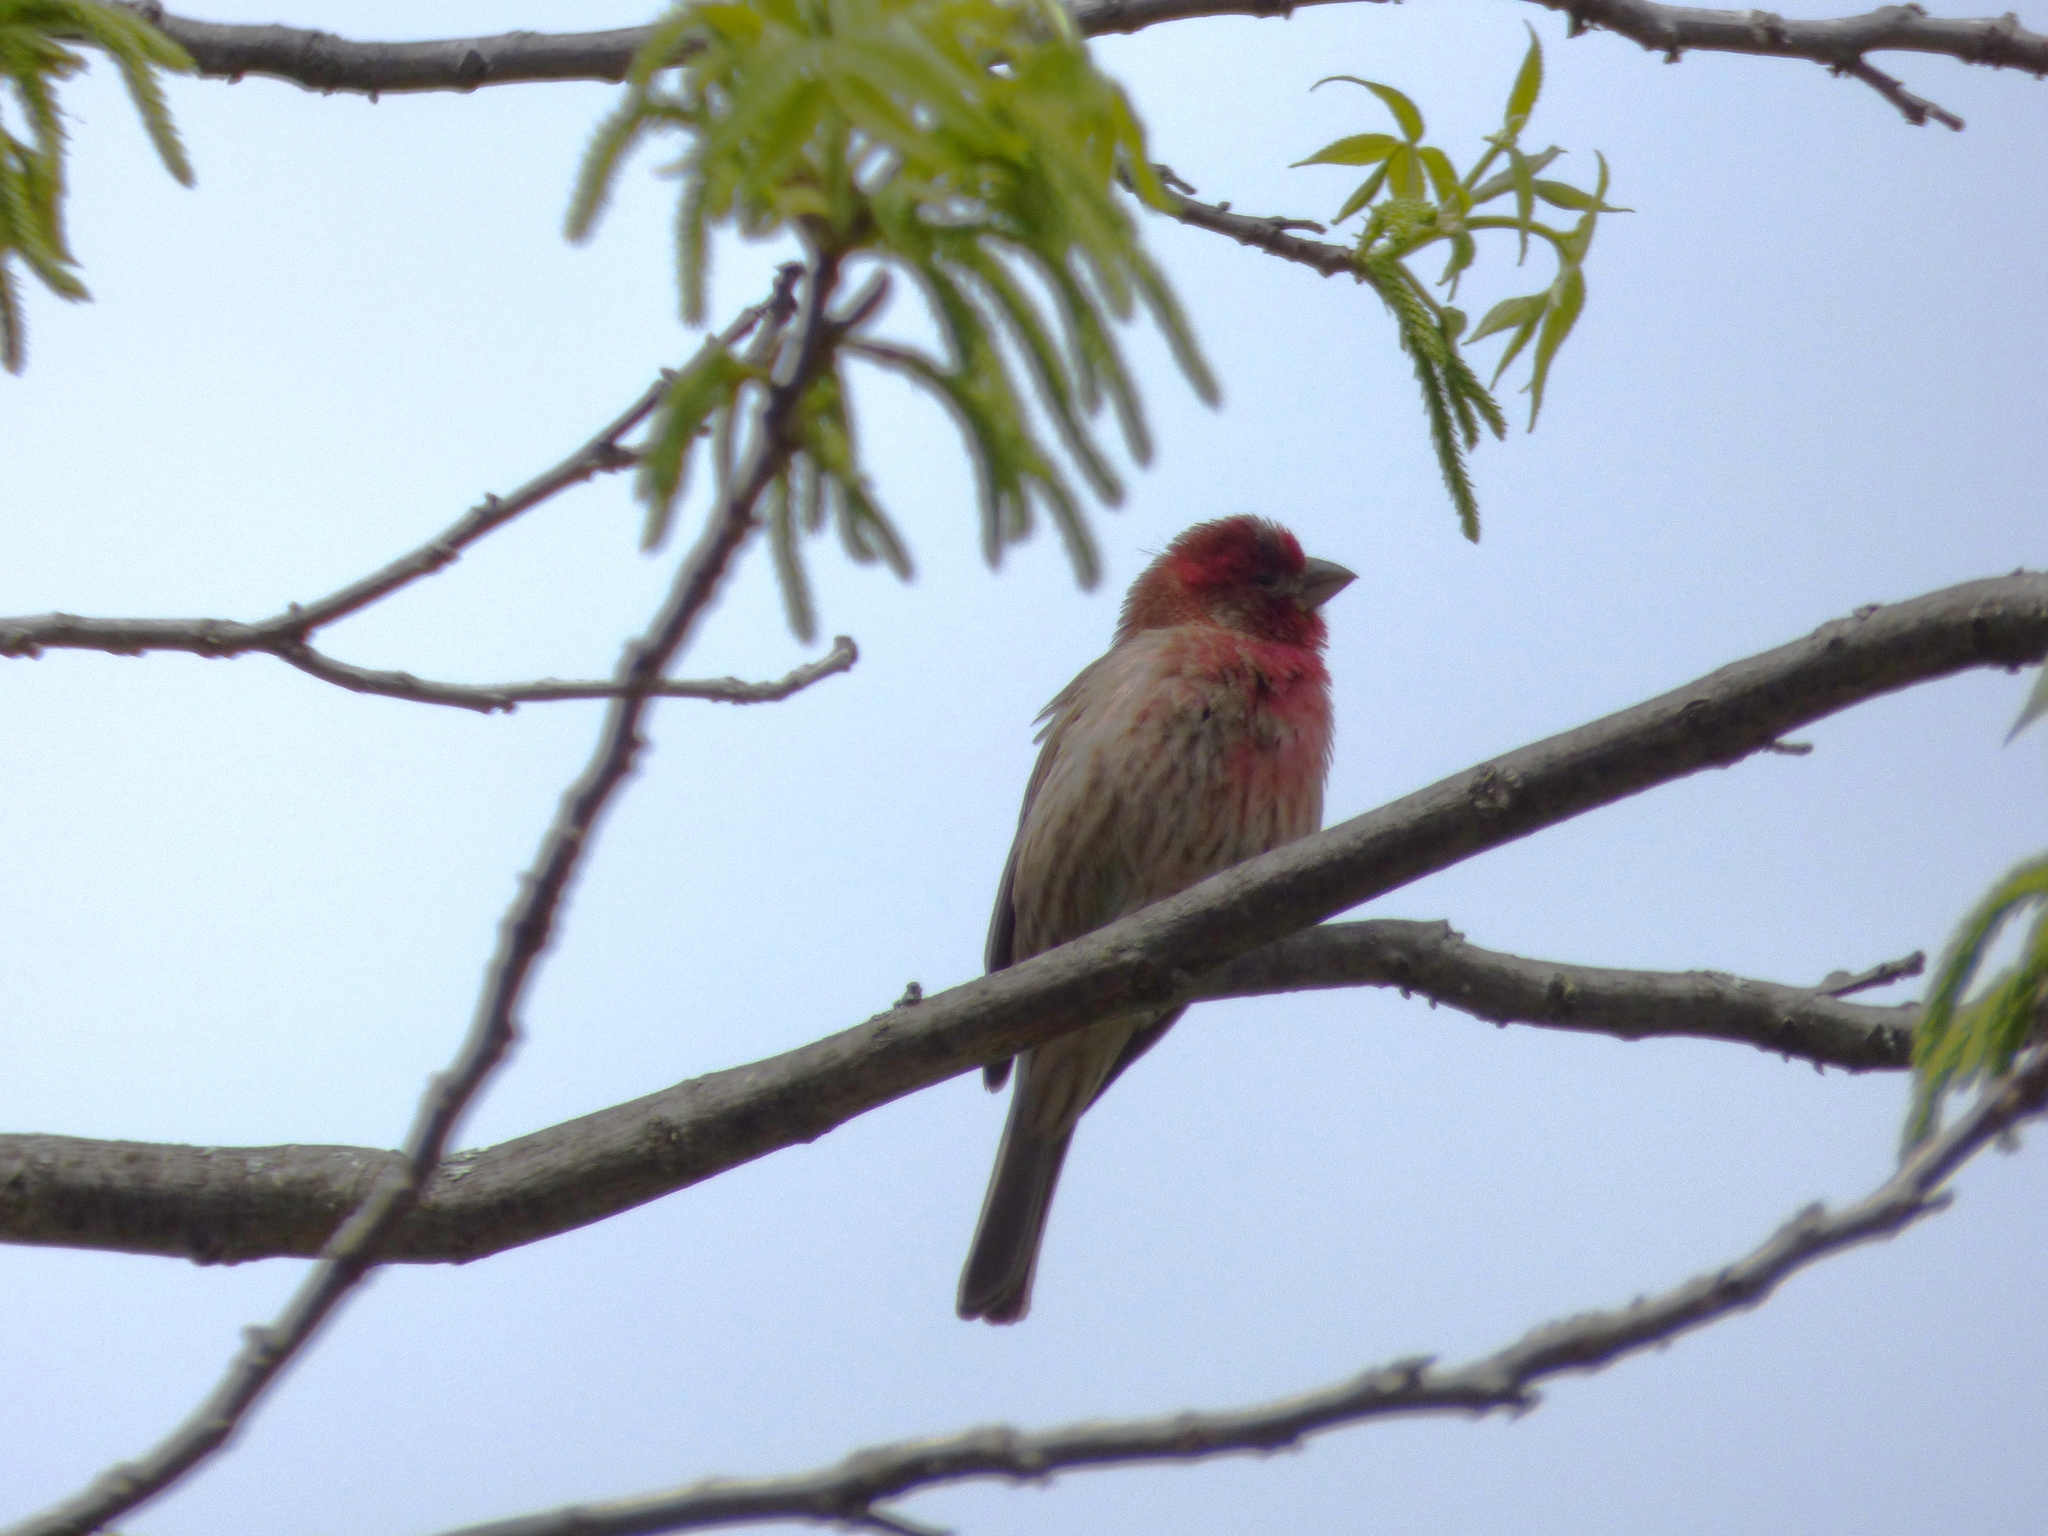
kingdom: Animalia
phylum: Chordata
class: Aves
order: Passeriformes
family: Fringillidae
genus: Haemorhous
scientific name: Haemorhous mexicanus
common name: House finch
